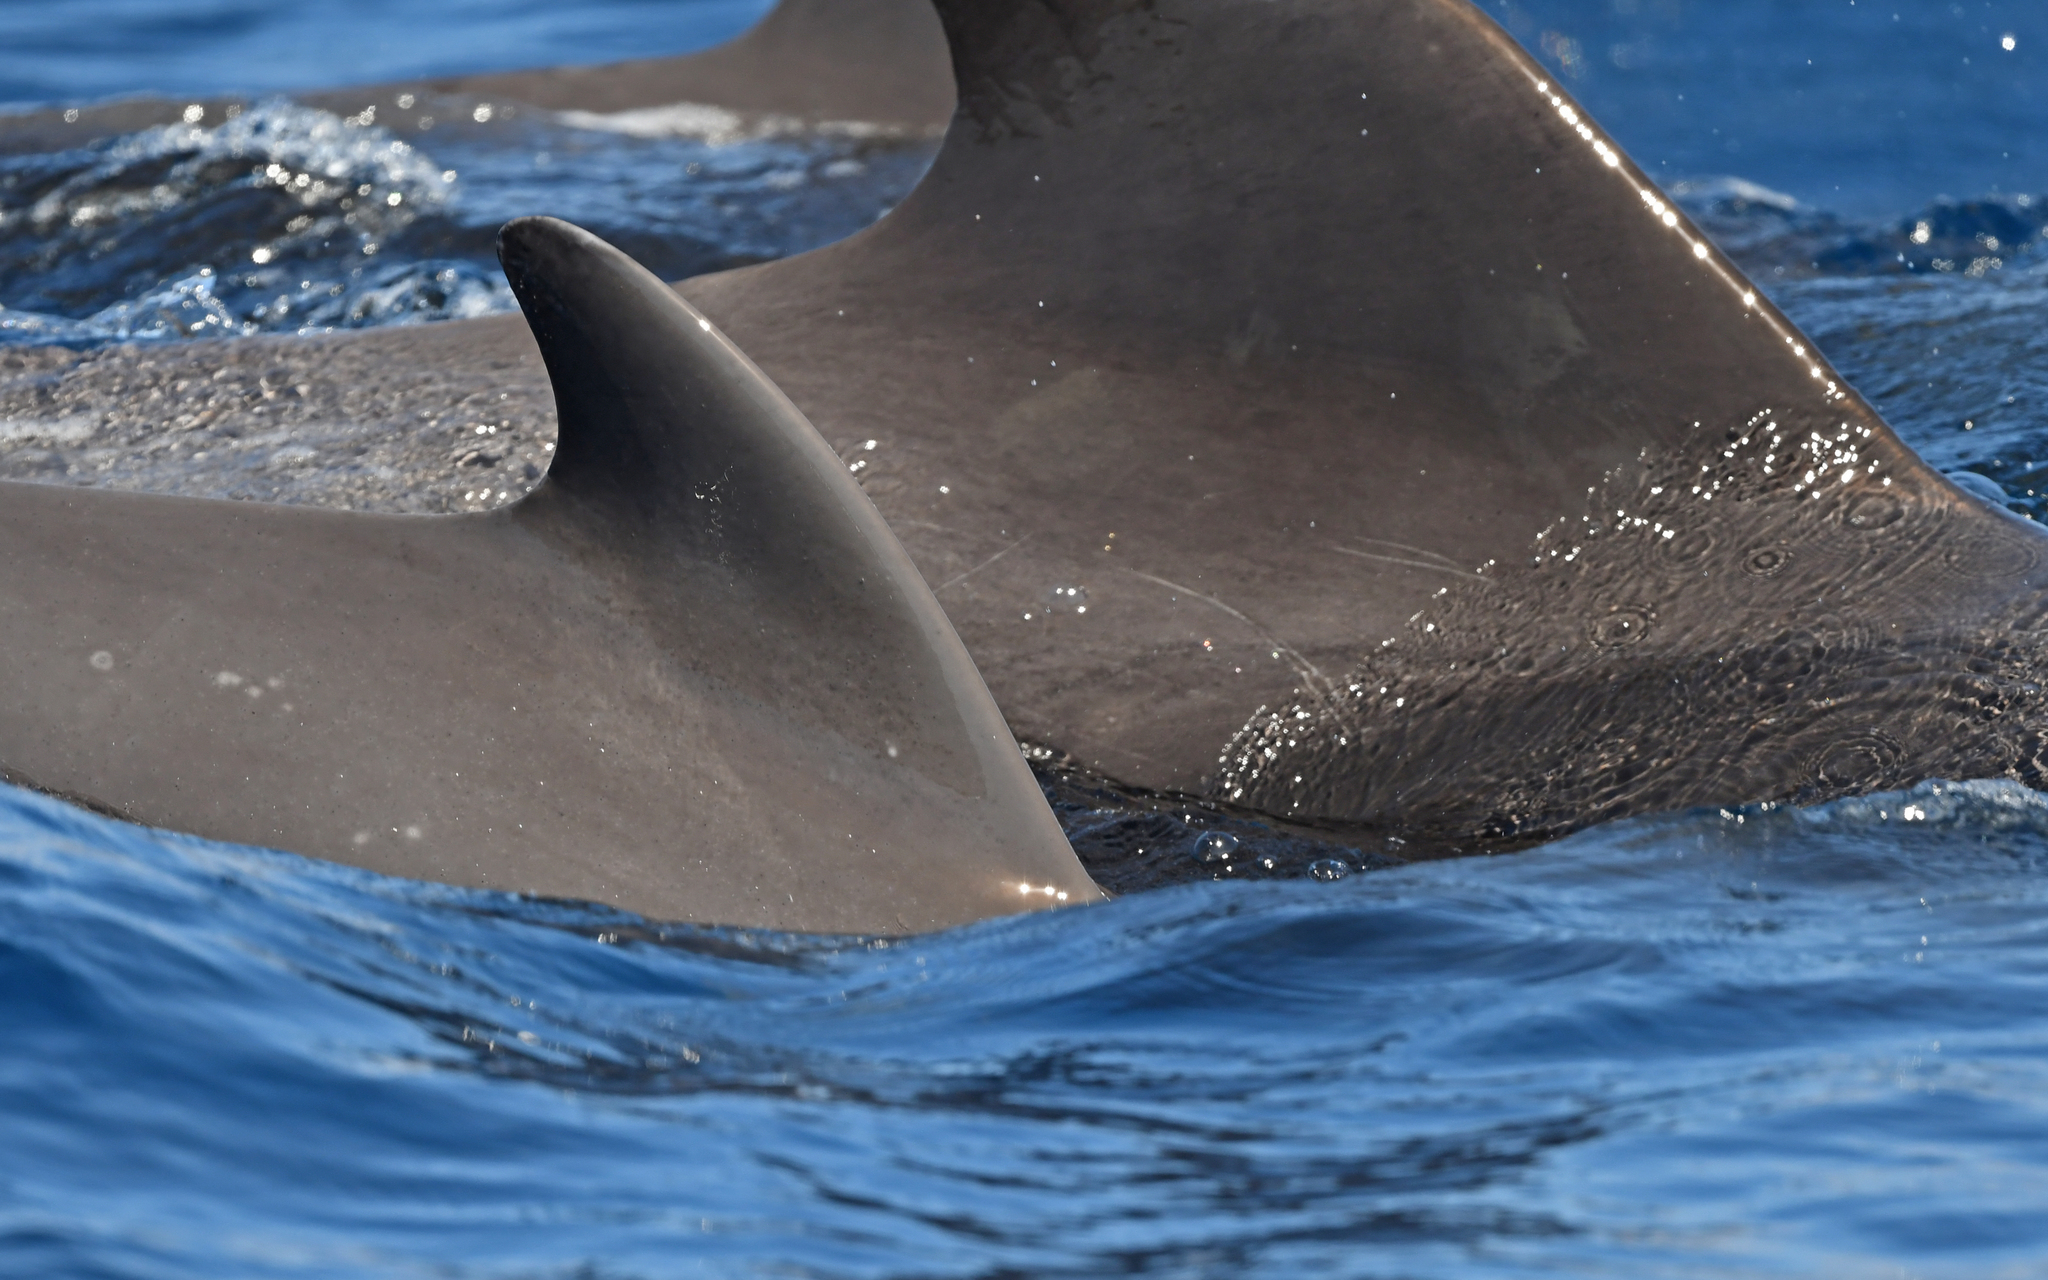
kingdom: Animalia
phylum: Chordata
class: Mammalia
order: Cetacea
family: Delphinidae
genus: Globicephala
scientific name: Globicephala macrorhynchus
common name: Short-finned pilot whale
